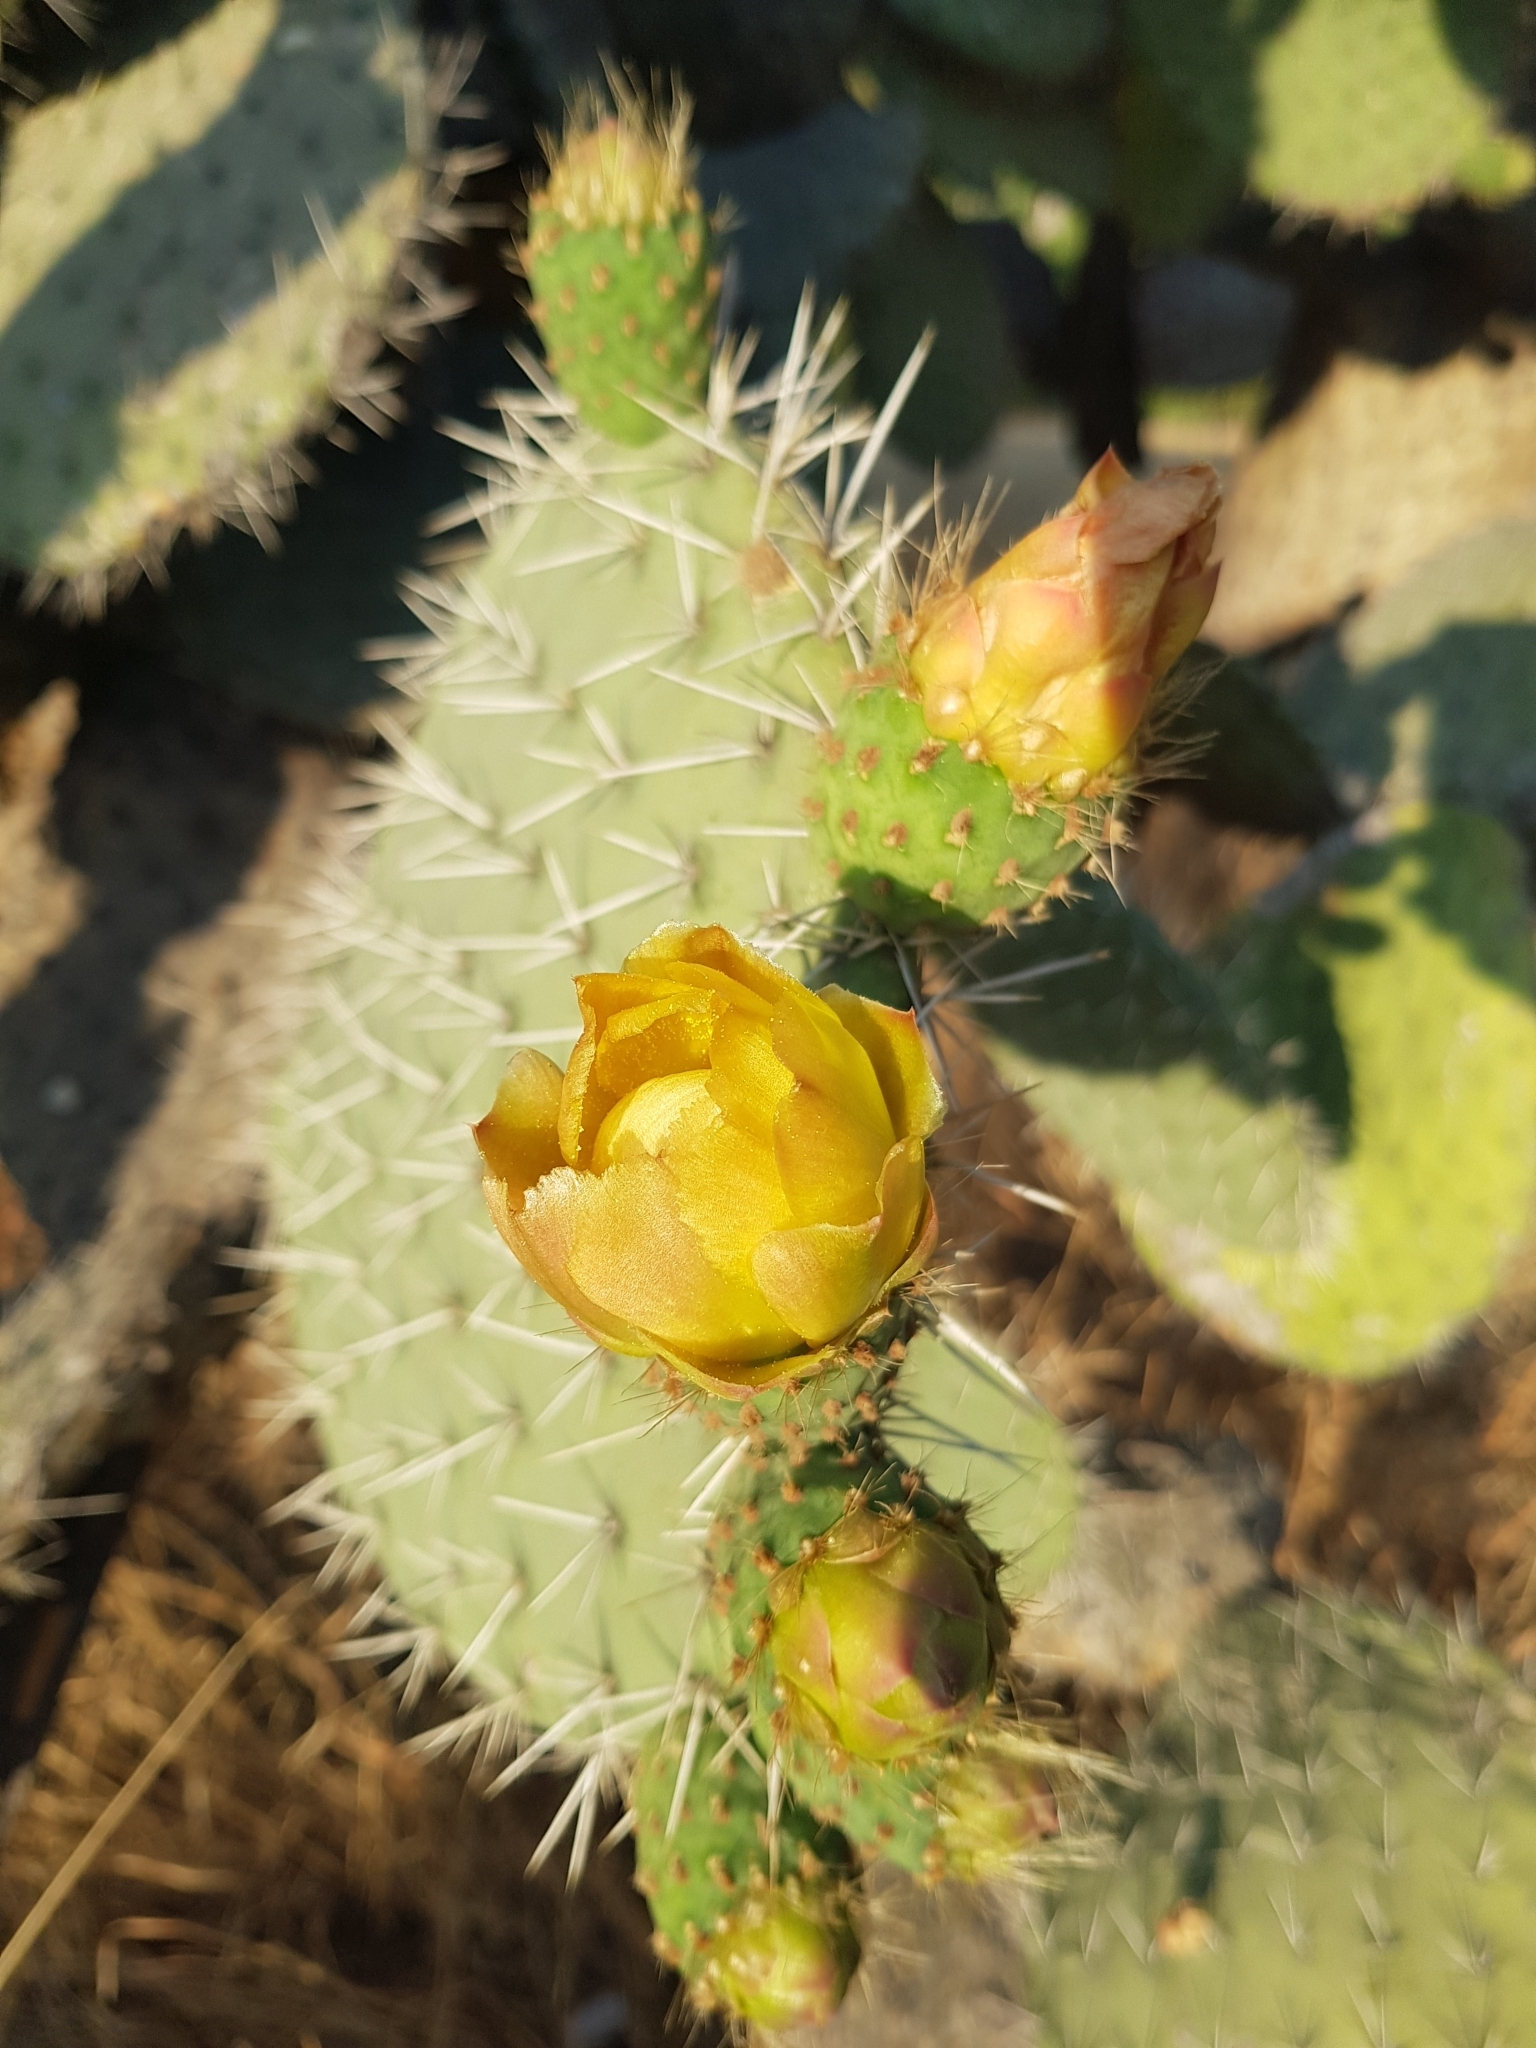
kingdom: Plantae
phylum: Tracheophyta
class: Magnoliopsida
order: Caryophyllales
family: Cactaceae
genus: Opuntia
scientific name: Opuntia hyptiacantha
